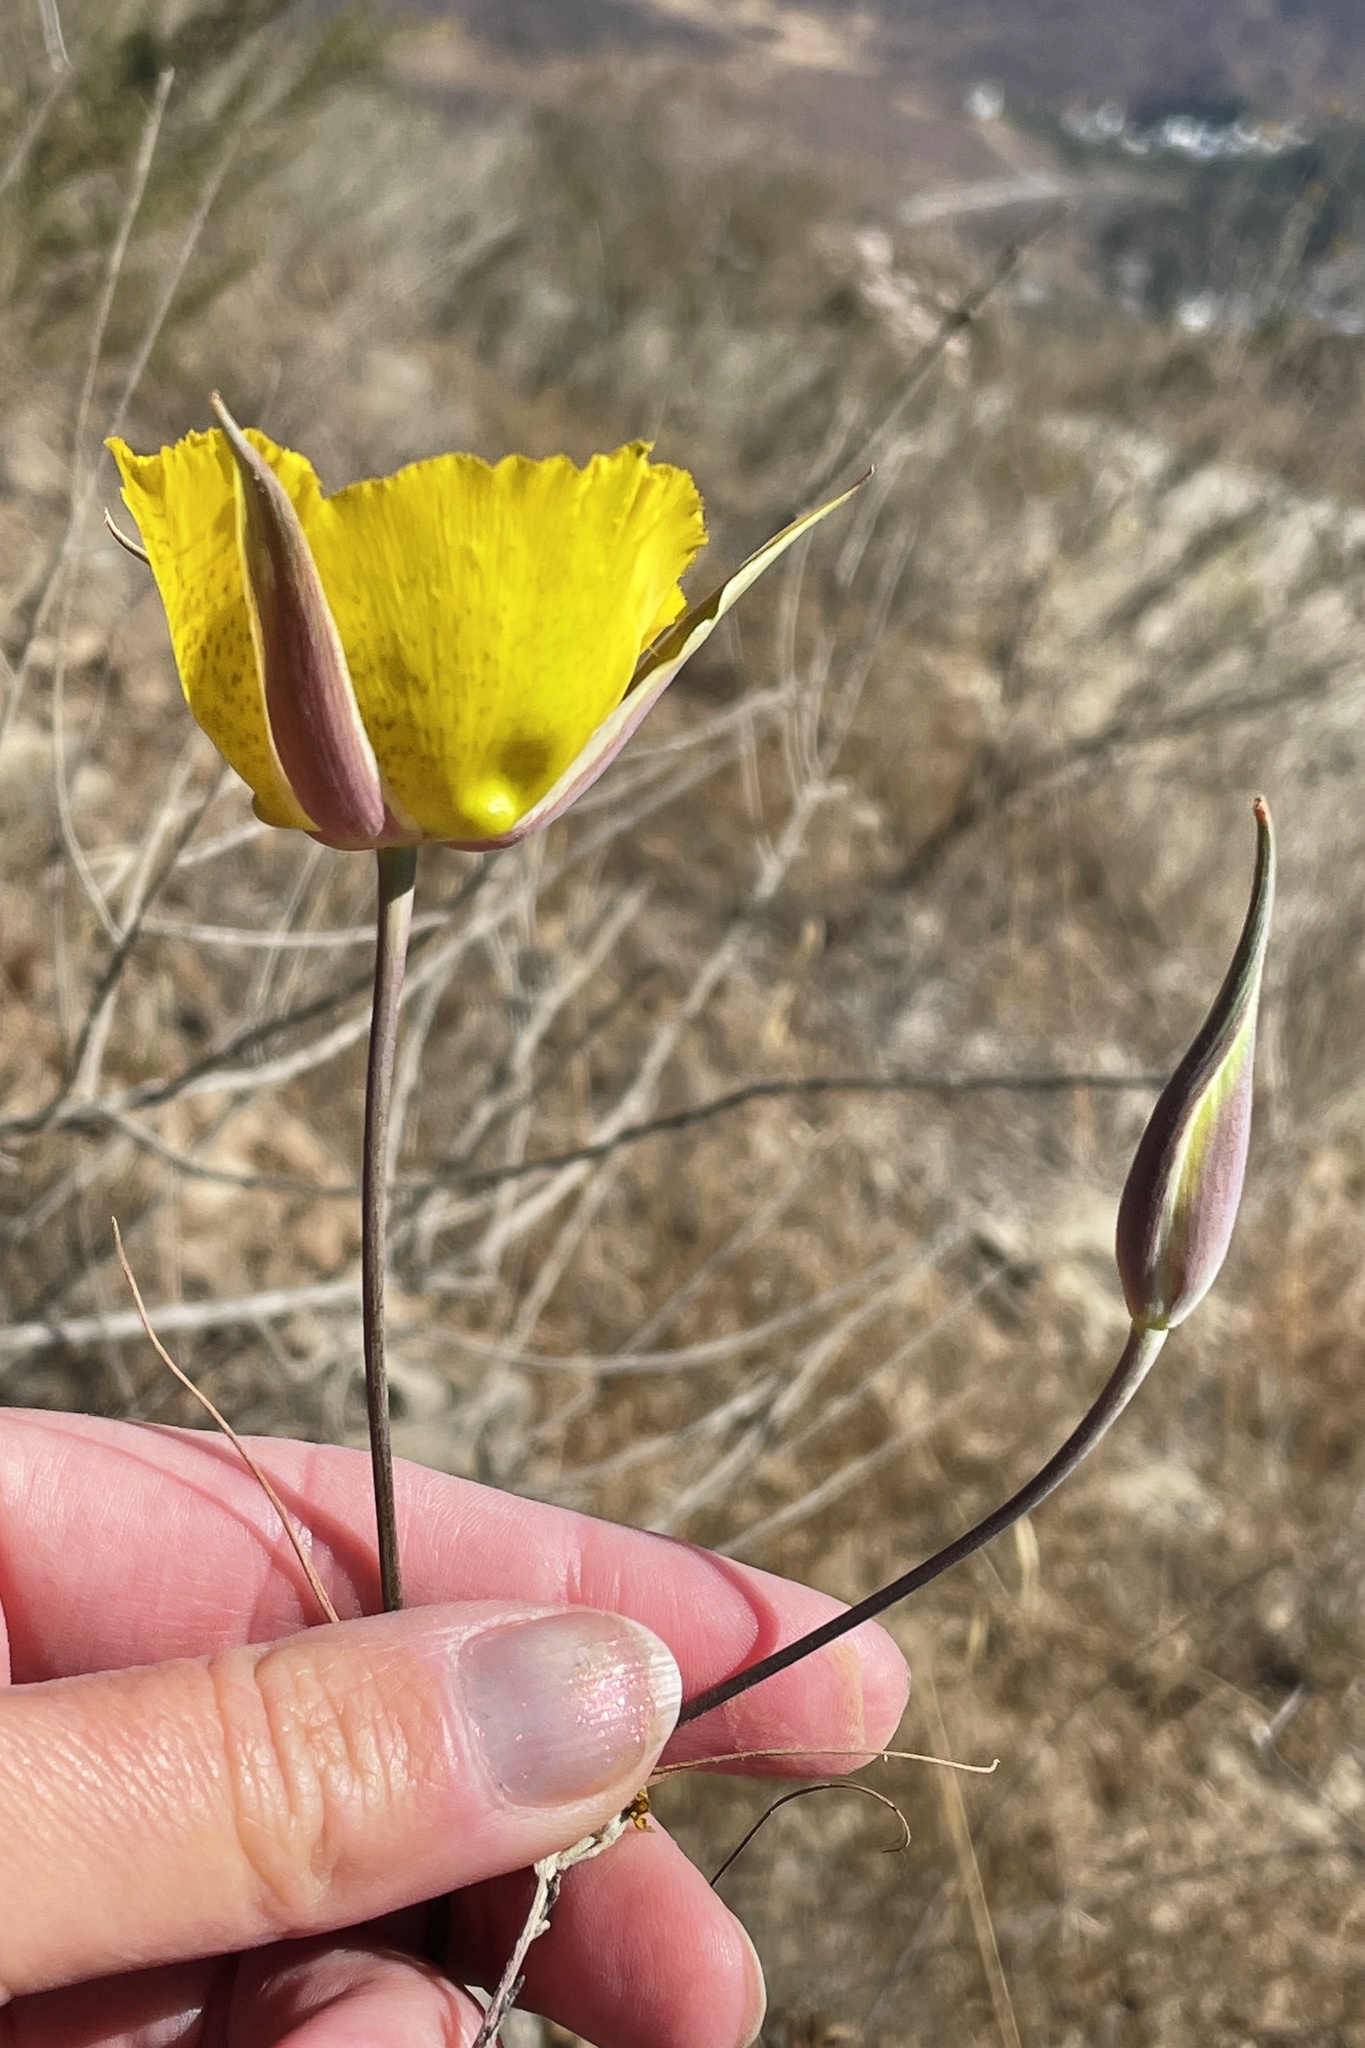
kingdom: Plantae
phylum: Tracheophyta
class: Liliopsida
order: Liliales
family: Liliaceae
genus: Calochortus
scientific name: Calochortus weedii
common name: Weed's mariposa-lily
